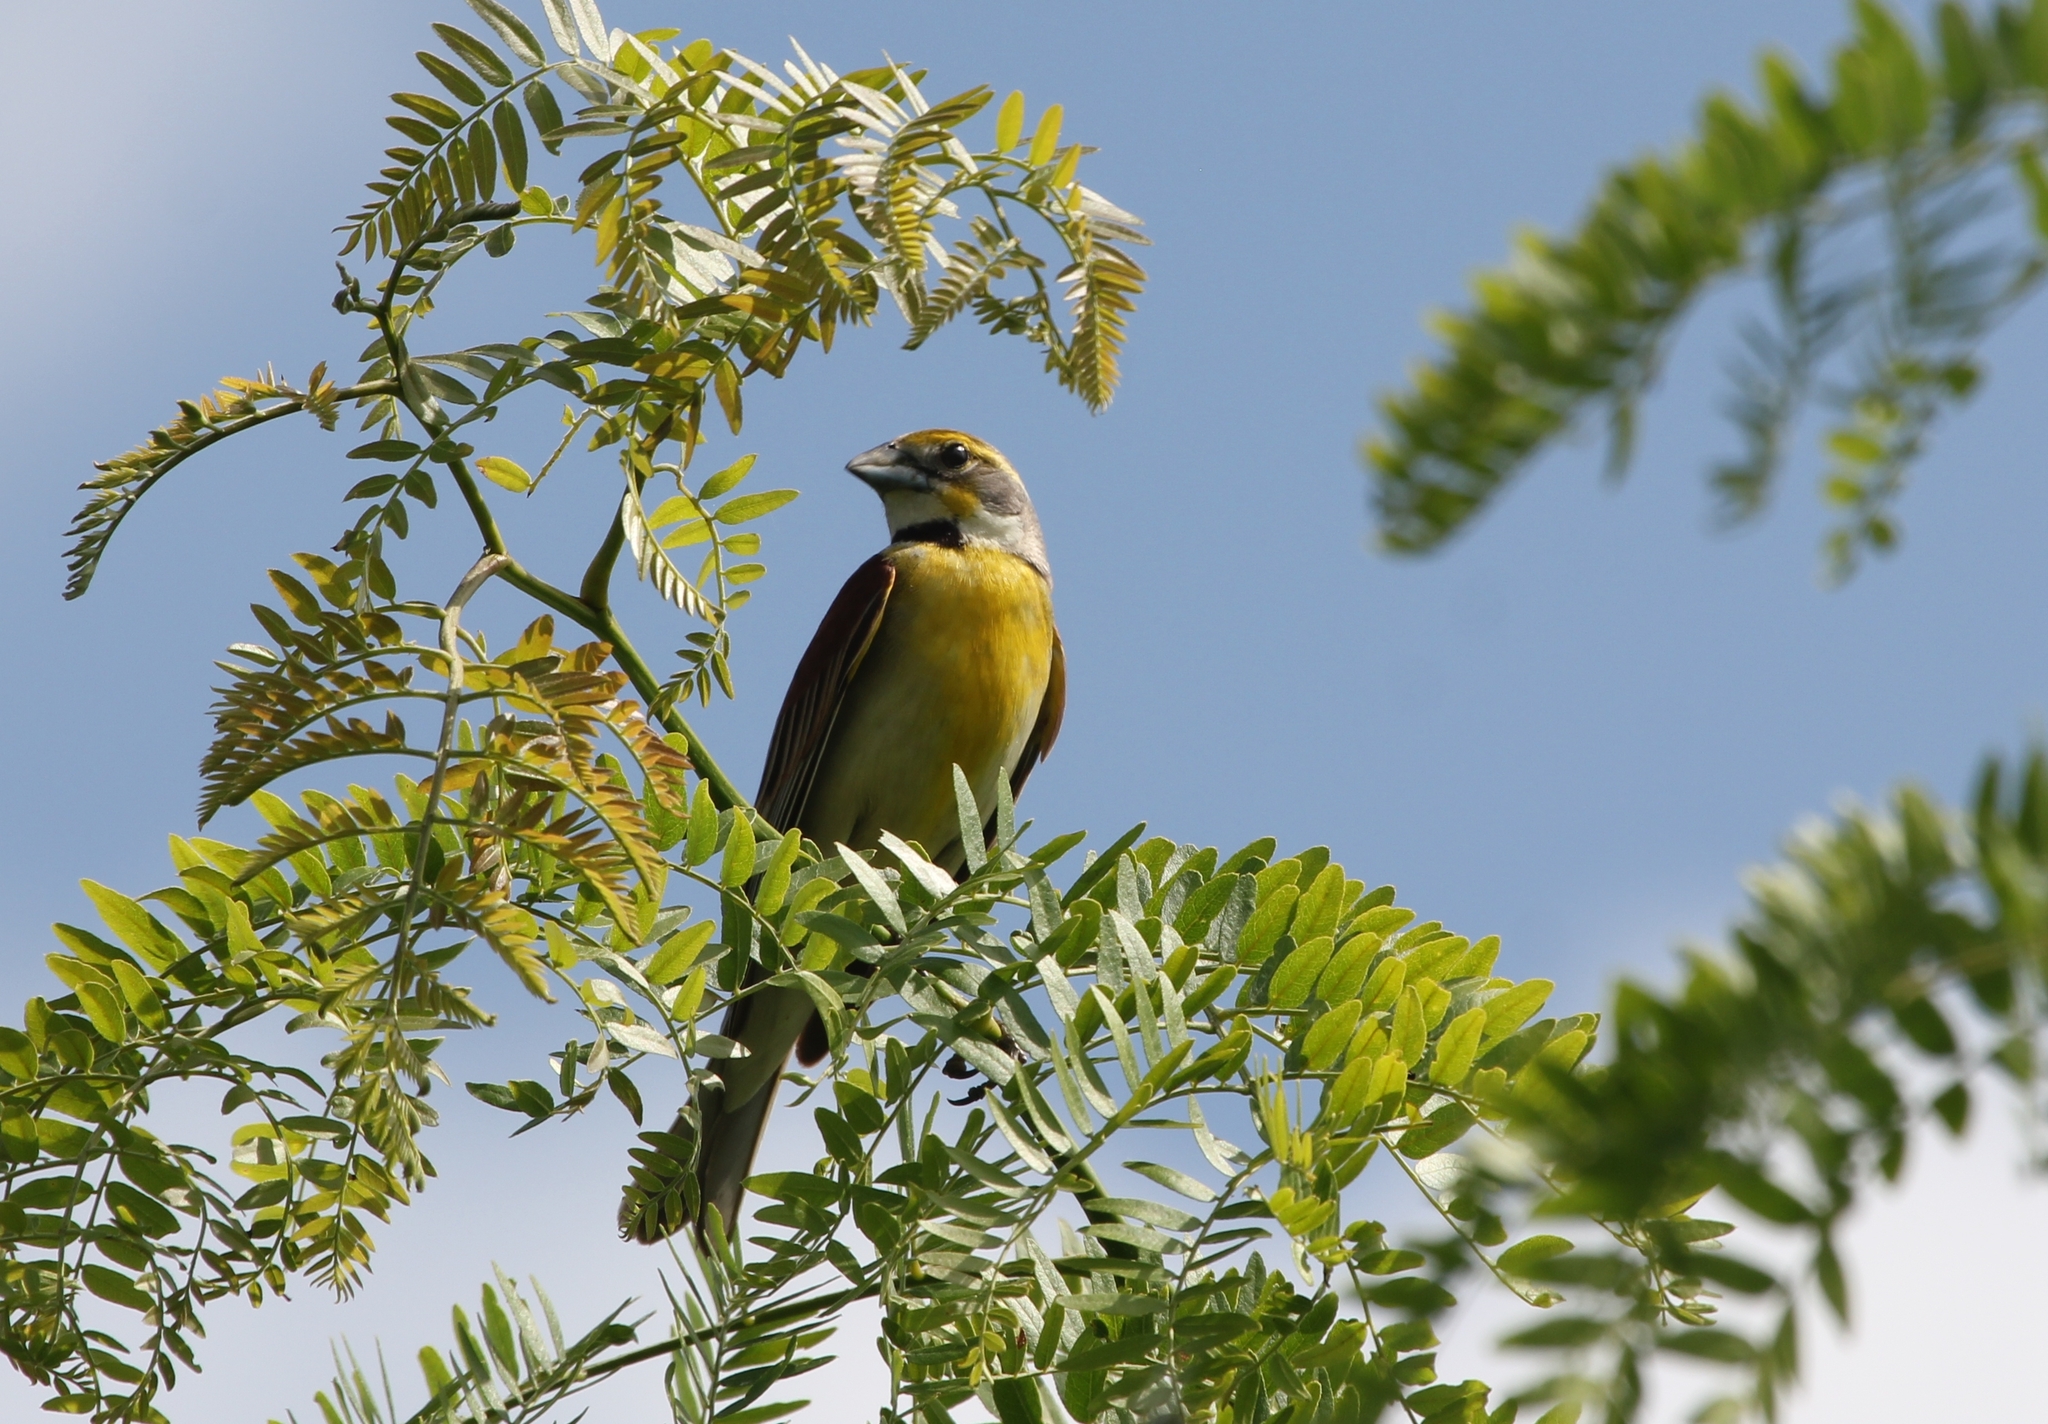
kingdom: Animalia
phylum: Chordata
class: Aves
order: Passeriformes
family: Cardinalidae
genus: Spiza
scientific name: Spiza americana
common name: Dickcissel
